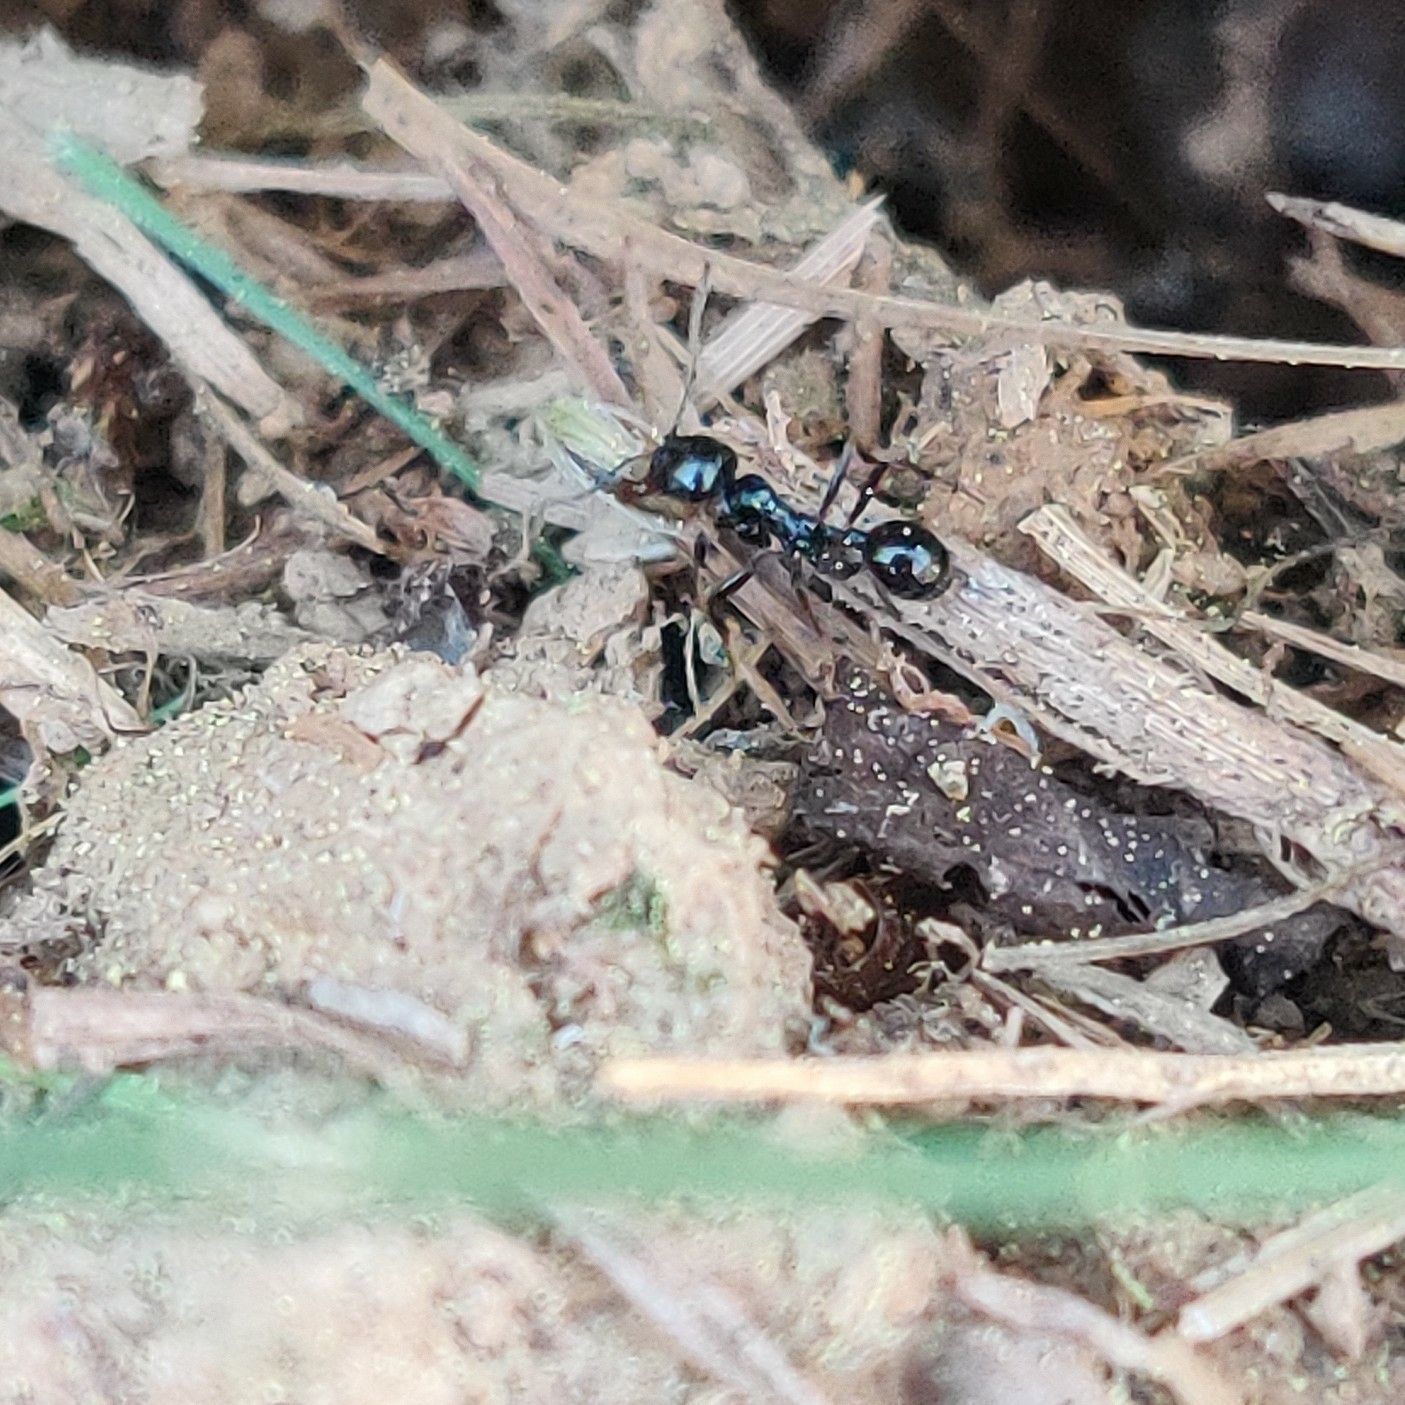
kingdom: Animalia
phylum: Arthropoda
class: Insecta
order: Hymenoptera
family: Formicidae
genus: Messor
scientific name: Messor himalayanus
